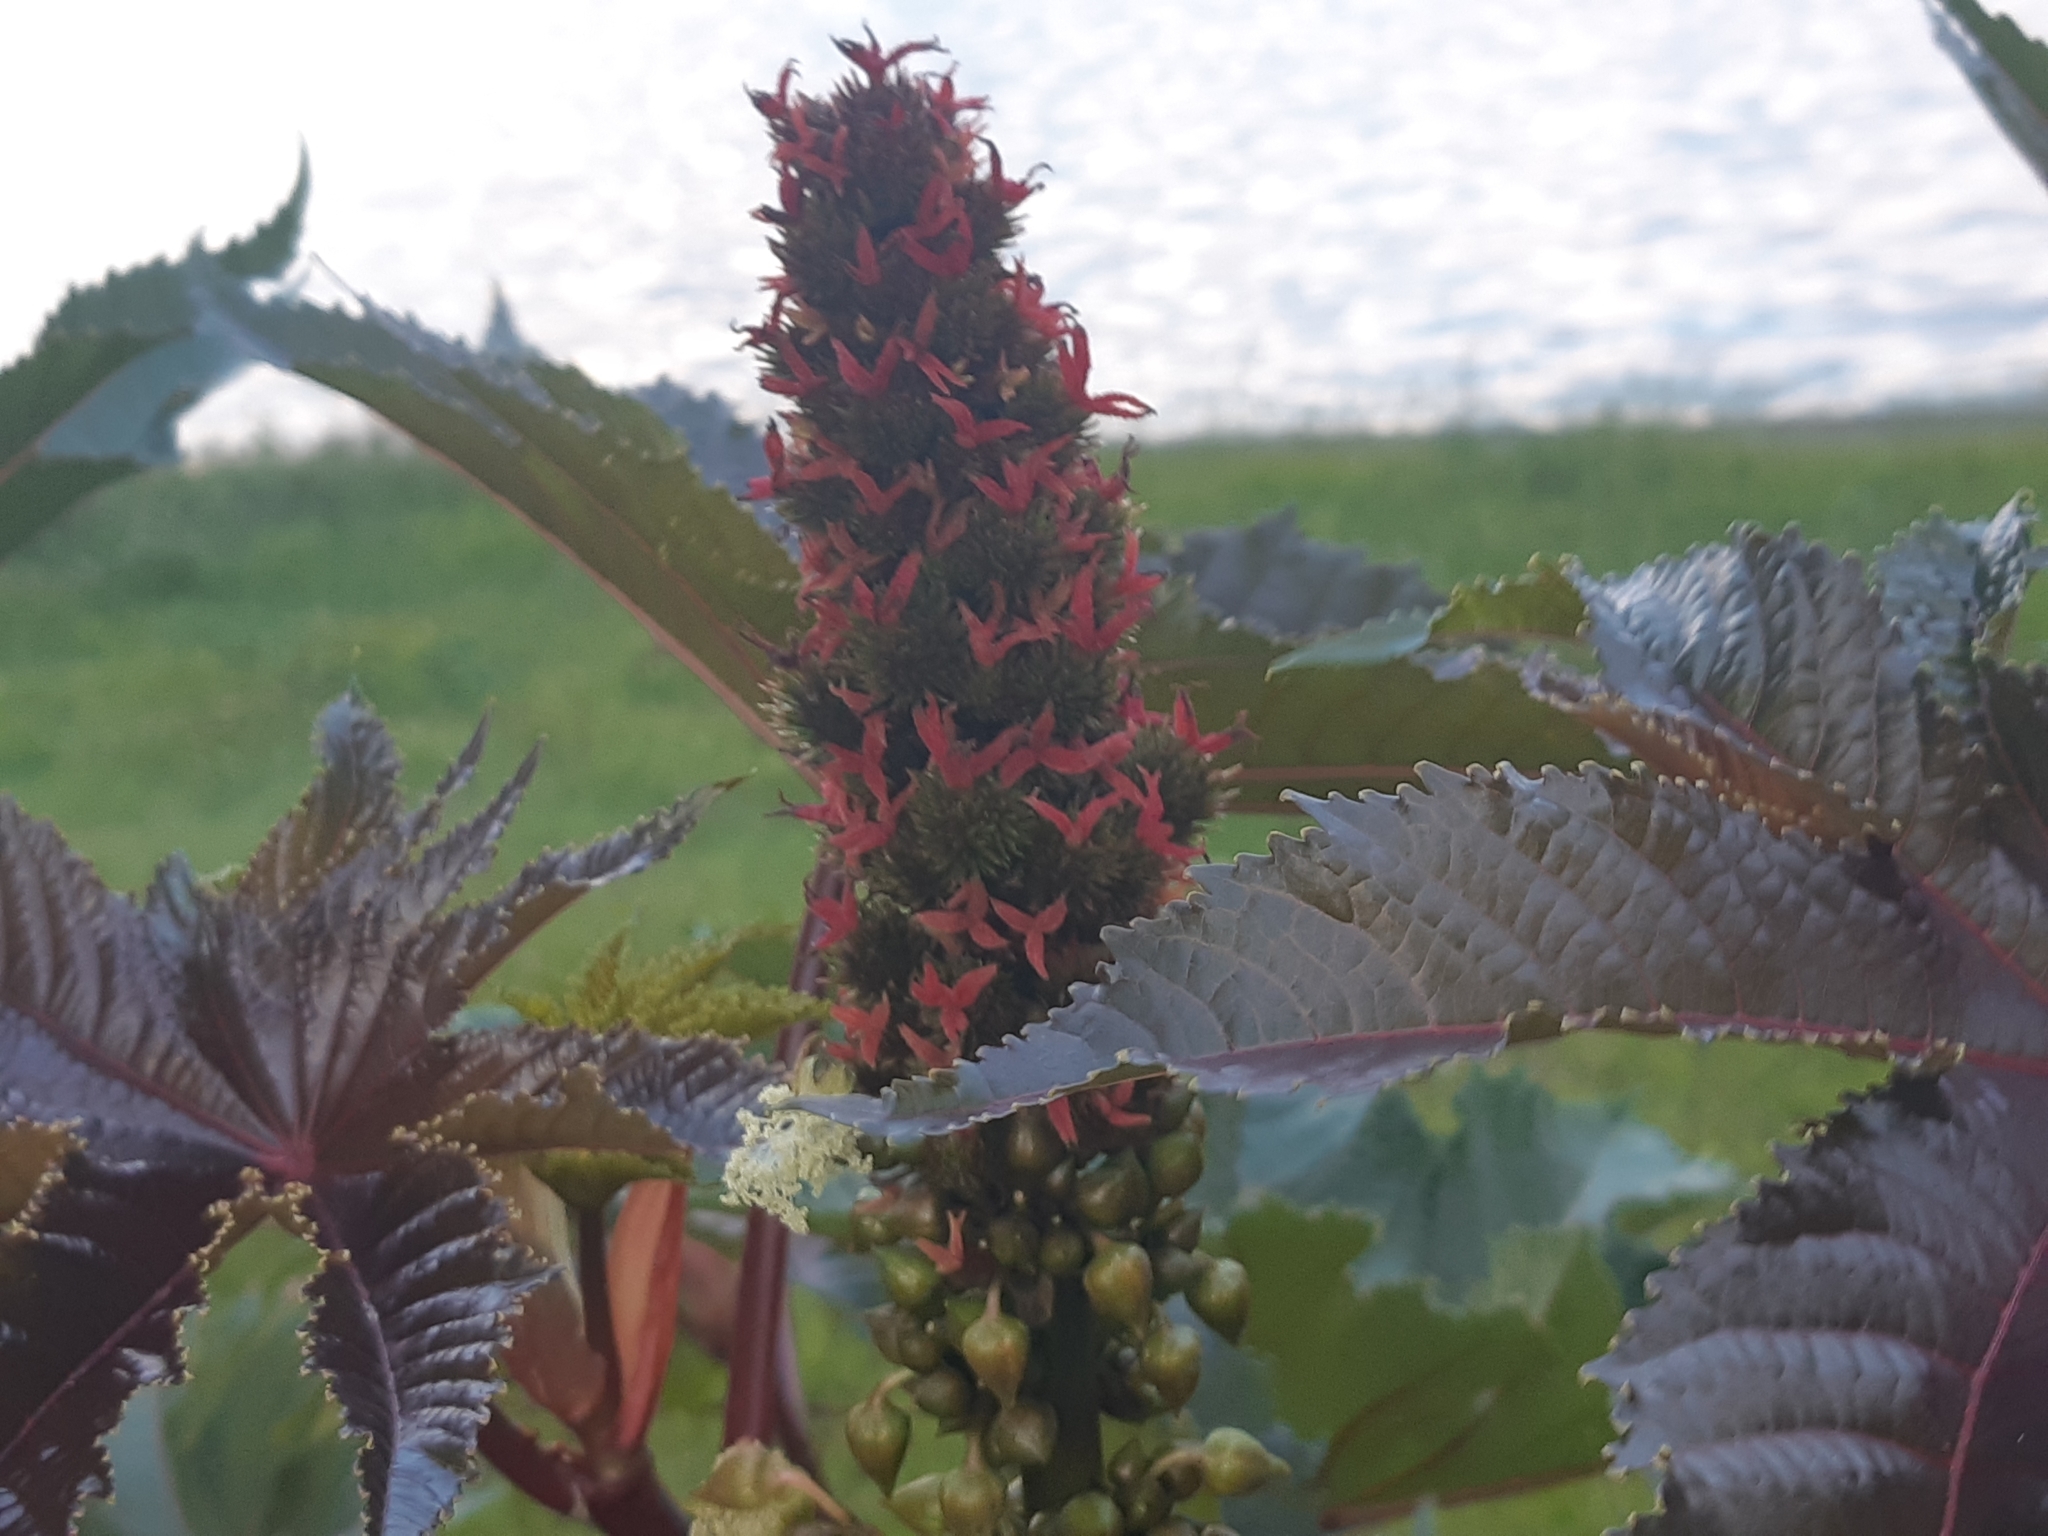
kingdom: Plantae
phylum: Tracheophyta
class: Magnoliopsida
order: Malpighiales
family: Euphorbiaceae
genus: Ricinus
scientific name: Ricinus communis
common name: Castor-oil-plant
